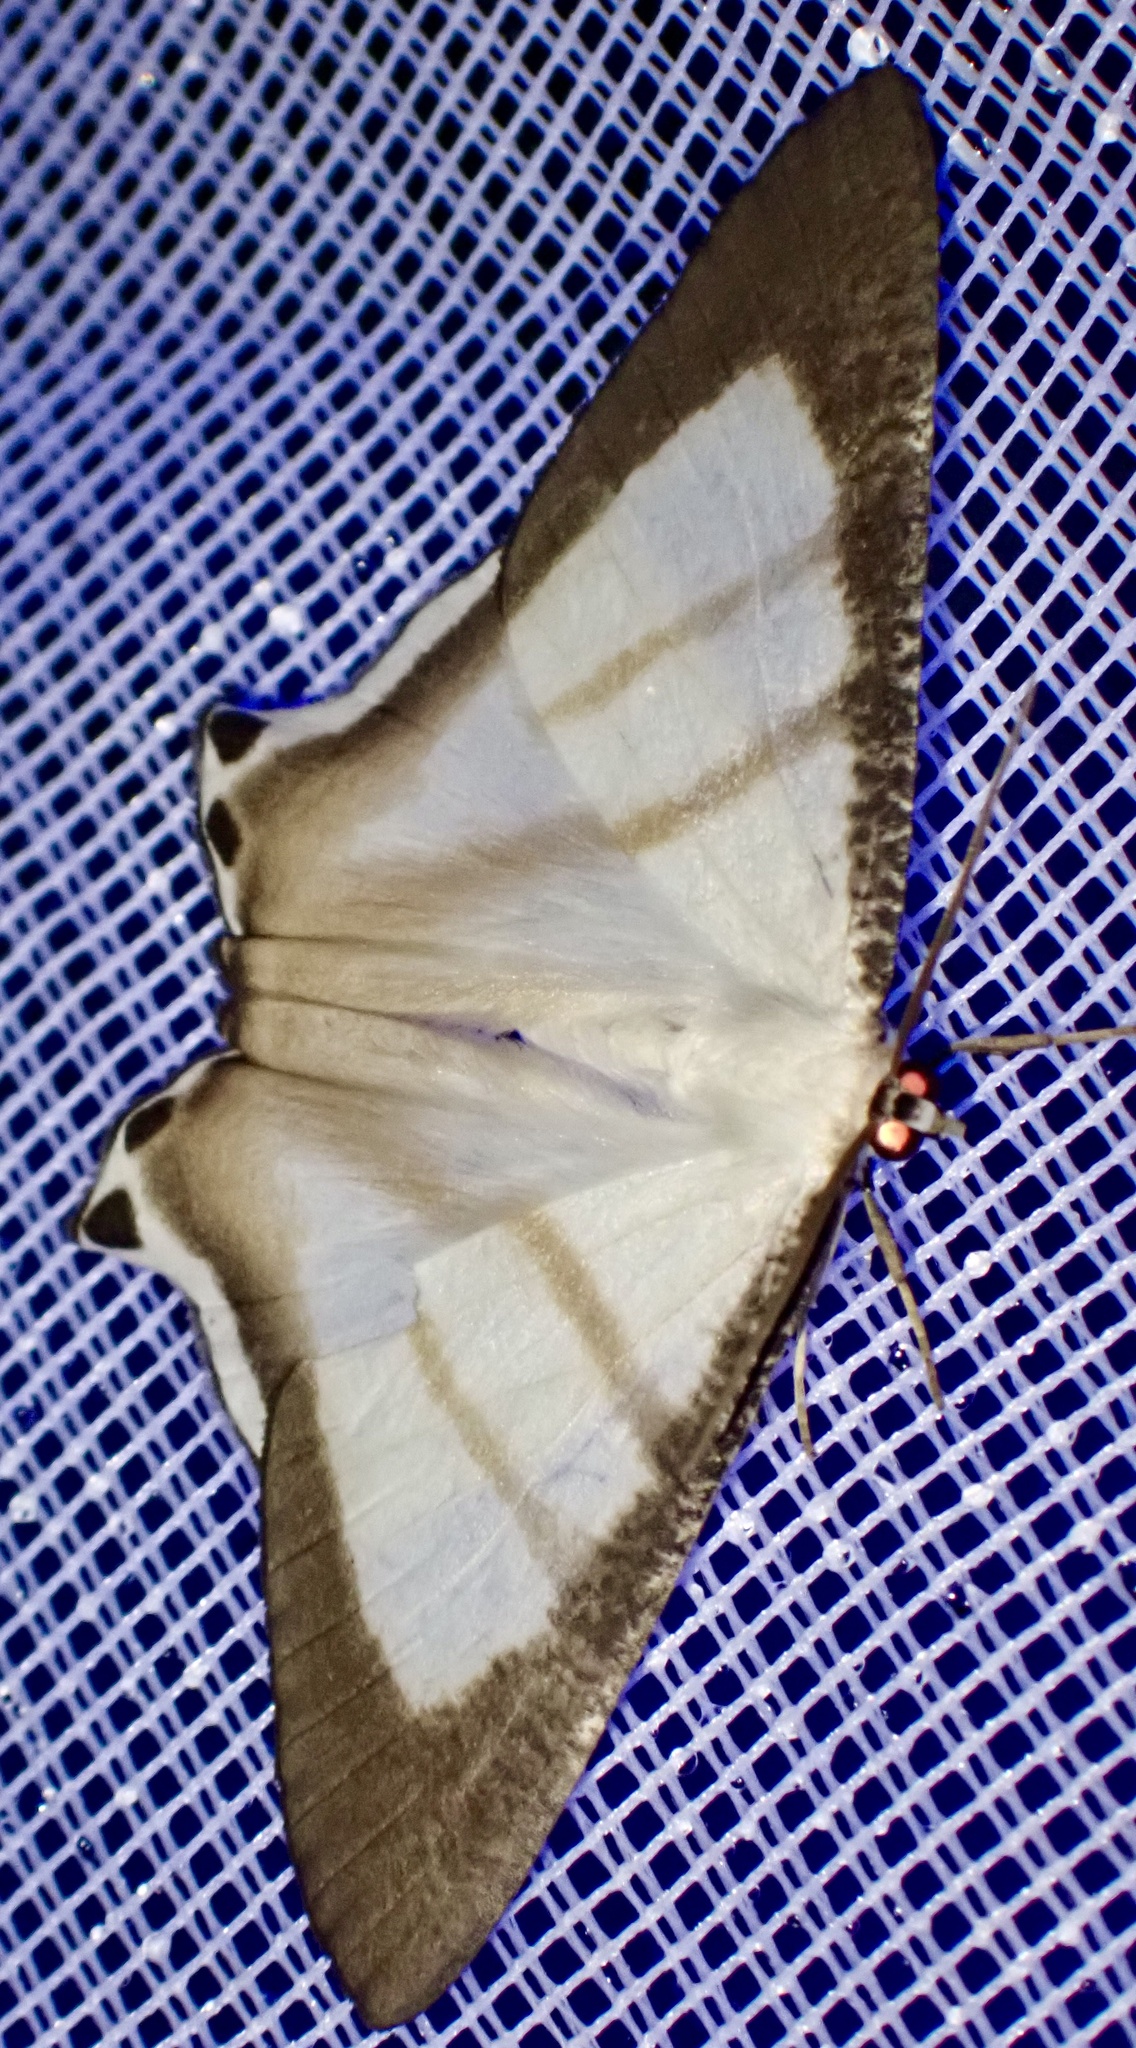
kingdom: Animalia
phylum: Arthropoda
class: Insecta
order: Lepidoptera
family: Uraniidae
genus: Cyphura
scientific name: Cyphura marcoi
